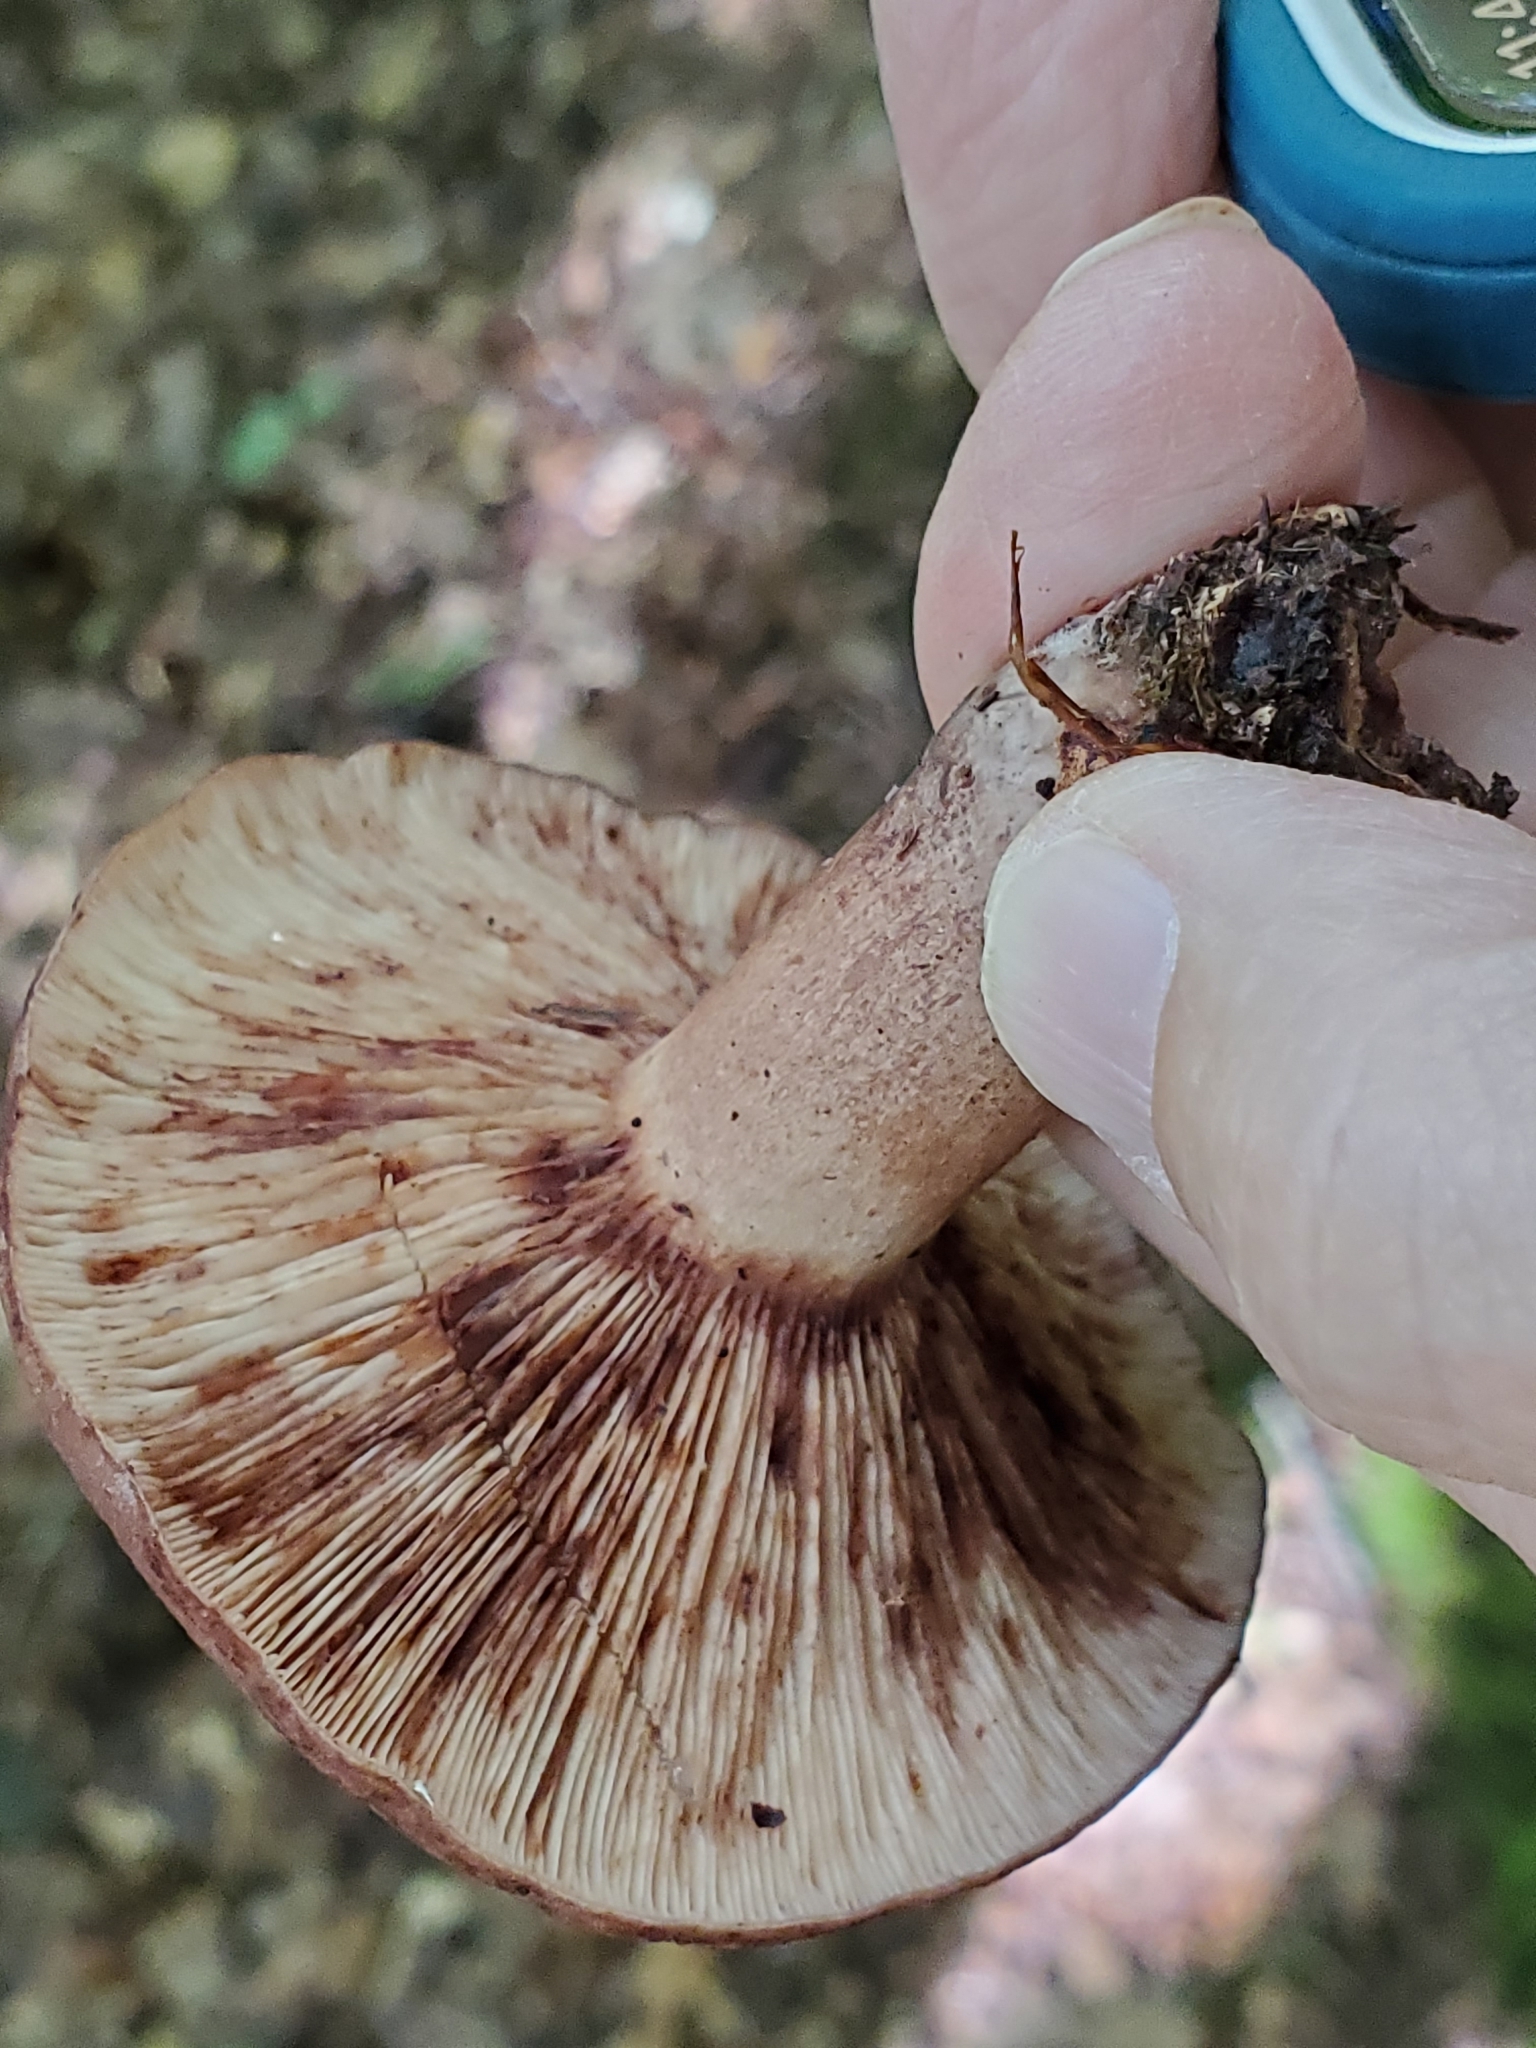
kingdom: Fungi
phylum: Basidiomycota
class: Agaricomycetes
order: Russulales
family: Russulaceae
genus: Lactarius
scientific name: Lactarius quietus
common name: Oak milk-cap
